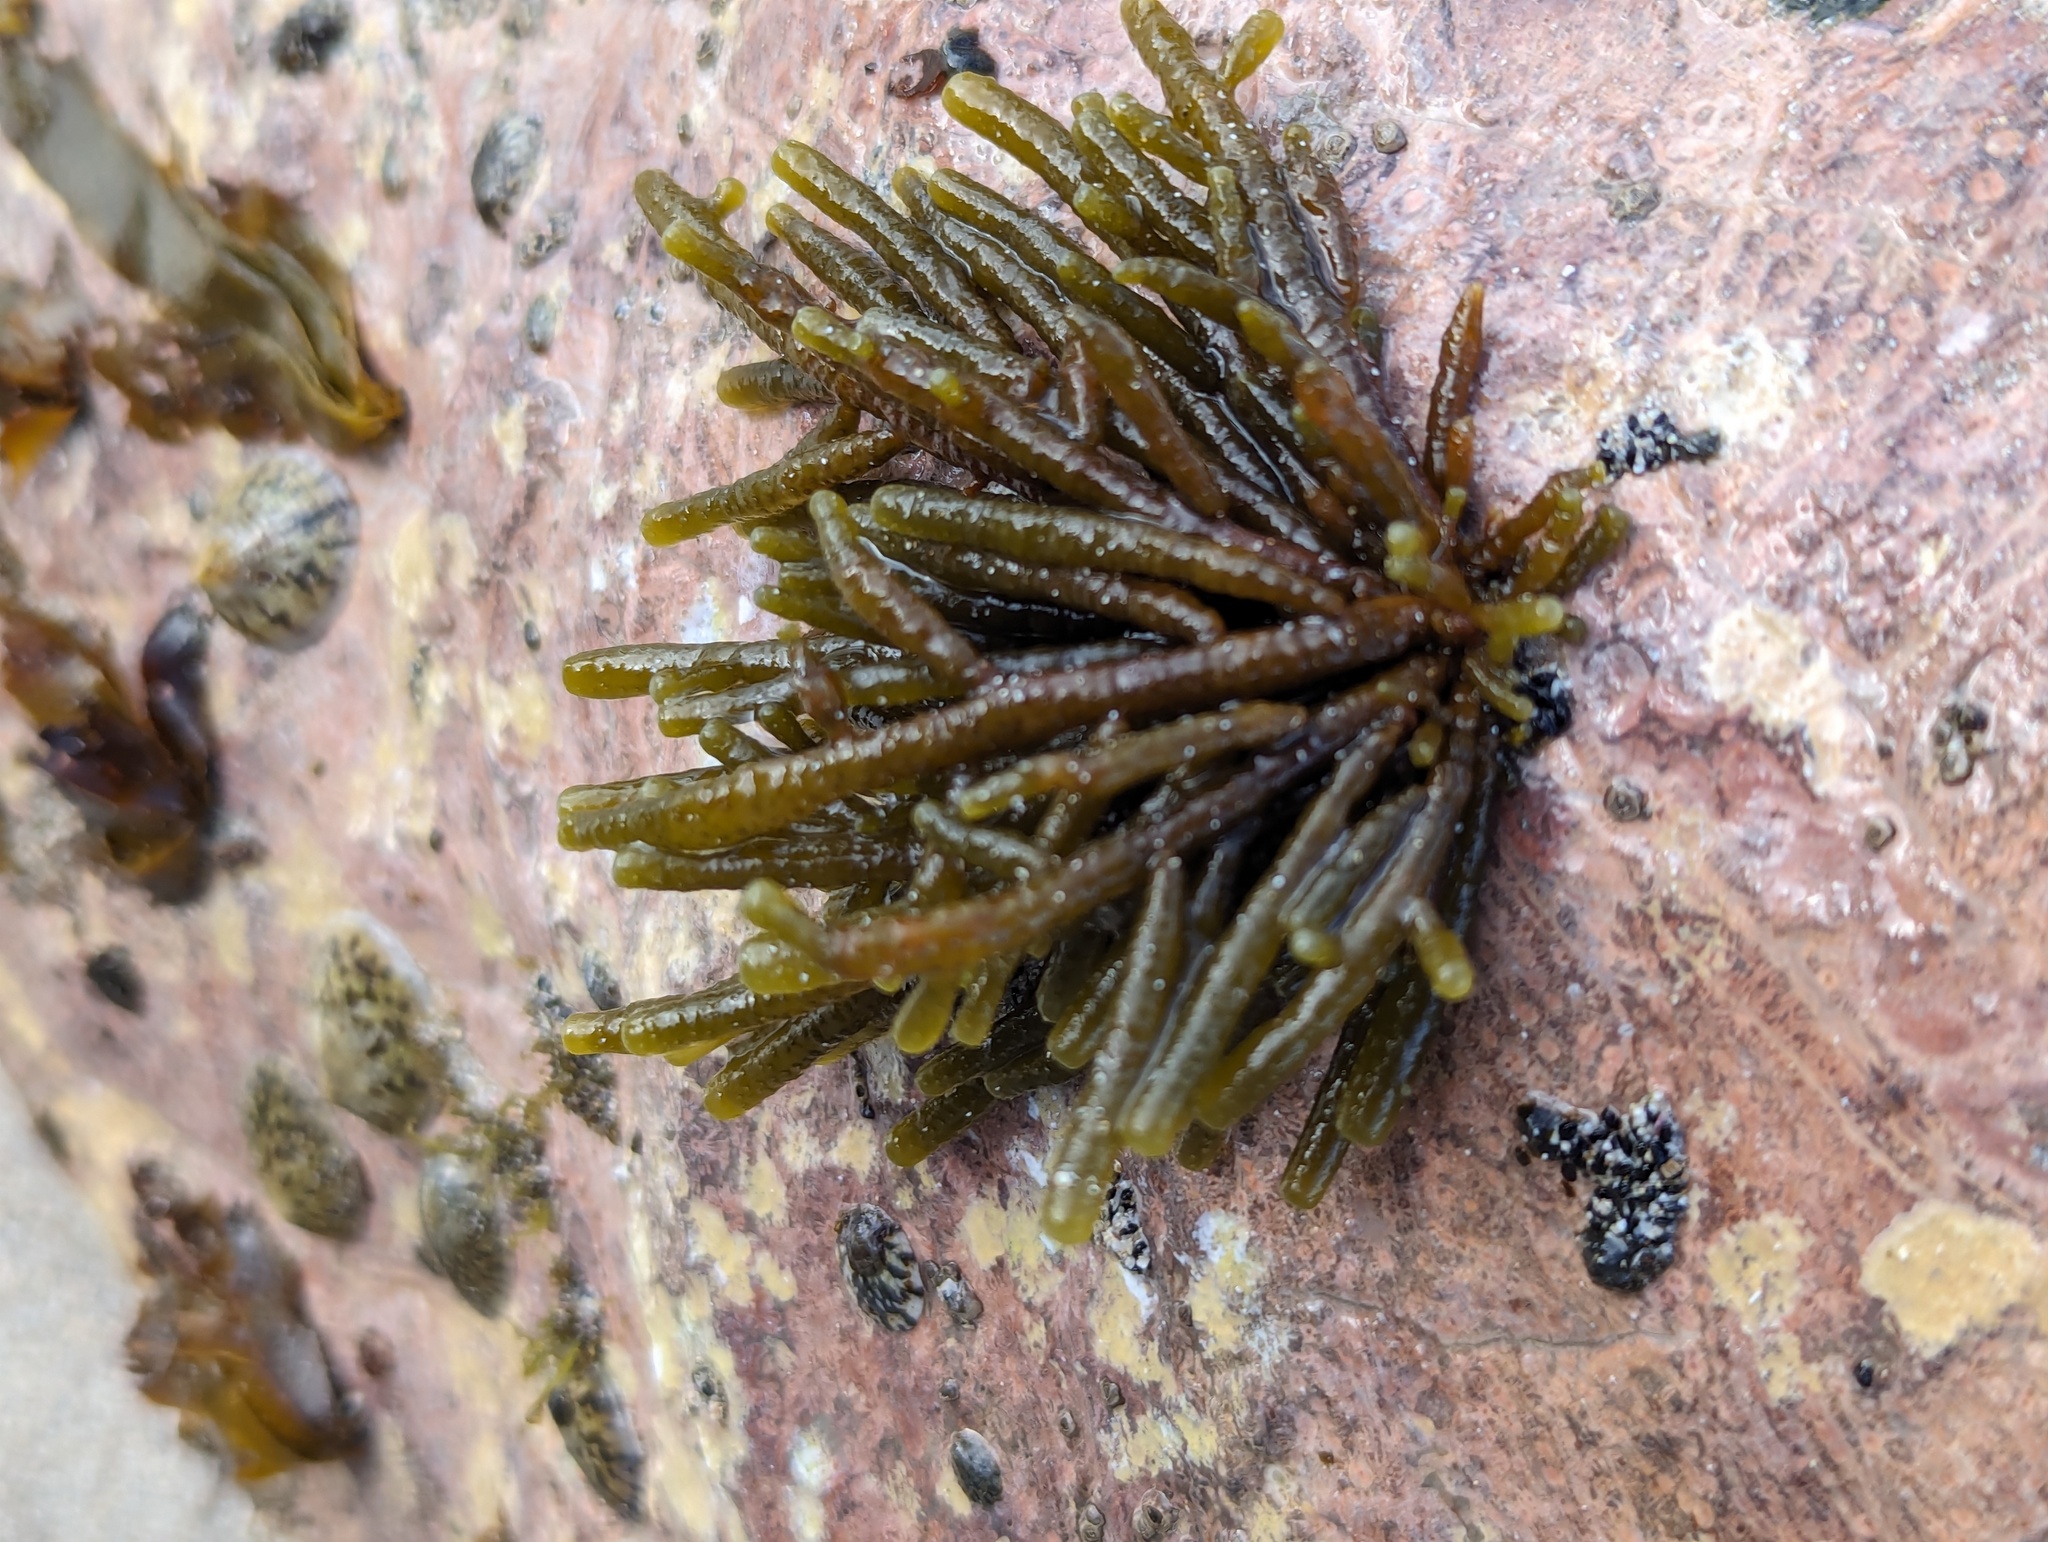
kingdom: Chromista
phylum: Ochrophyta
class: Phaeophyceae
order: Scytothamnales
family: Splachnidiaceae
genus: Splachnidium
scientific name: Splachnidium rugosum
